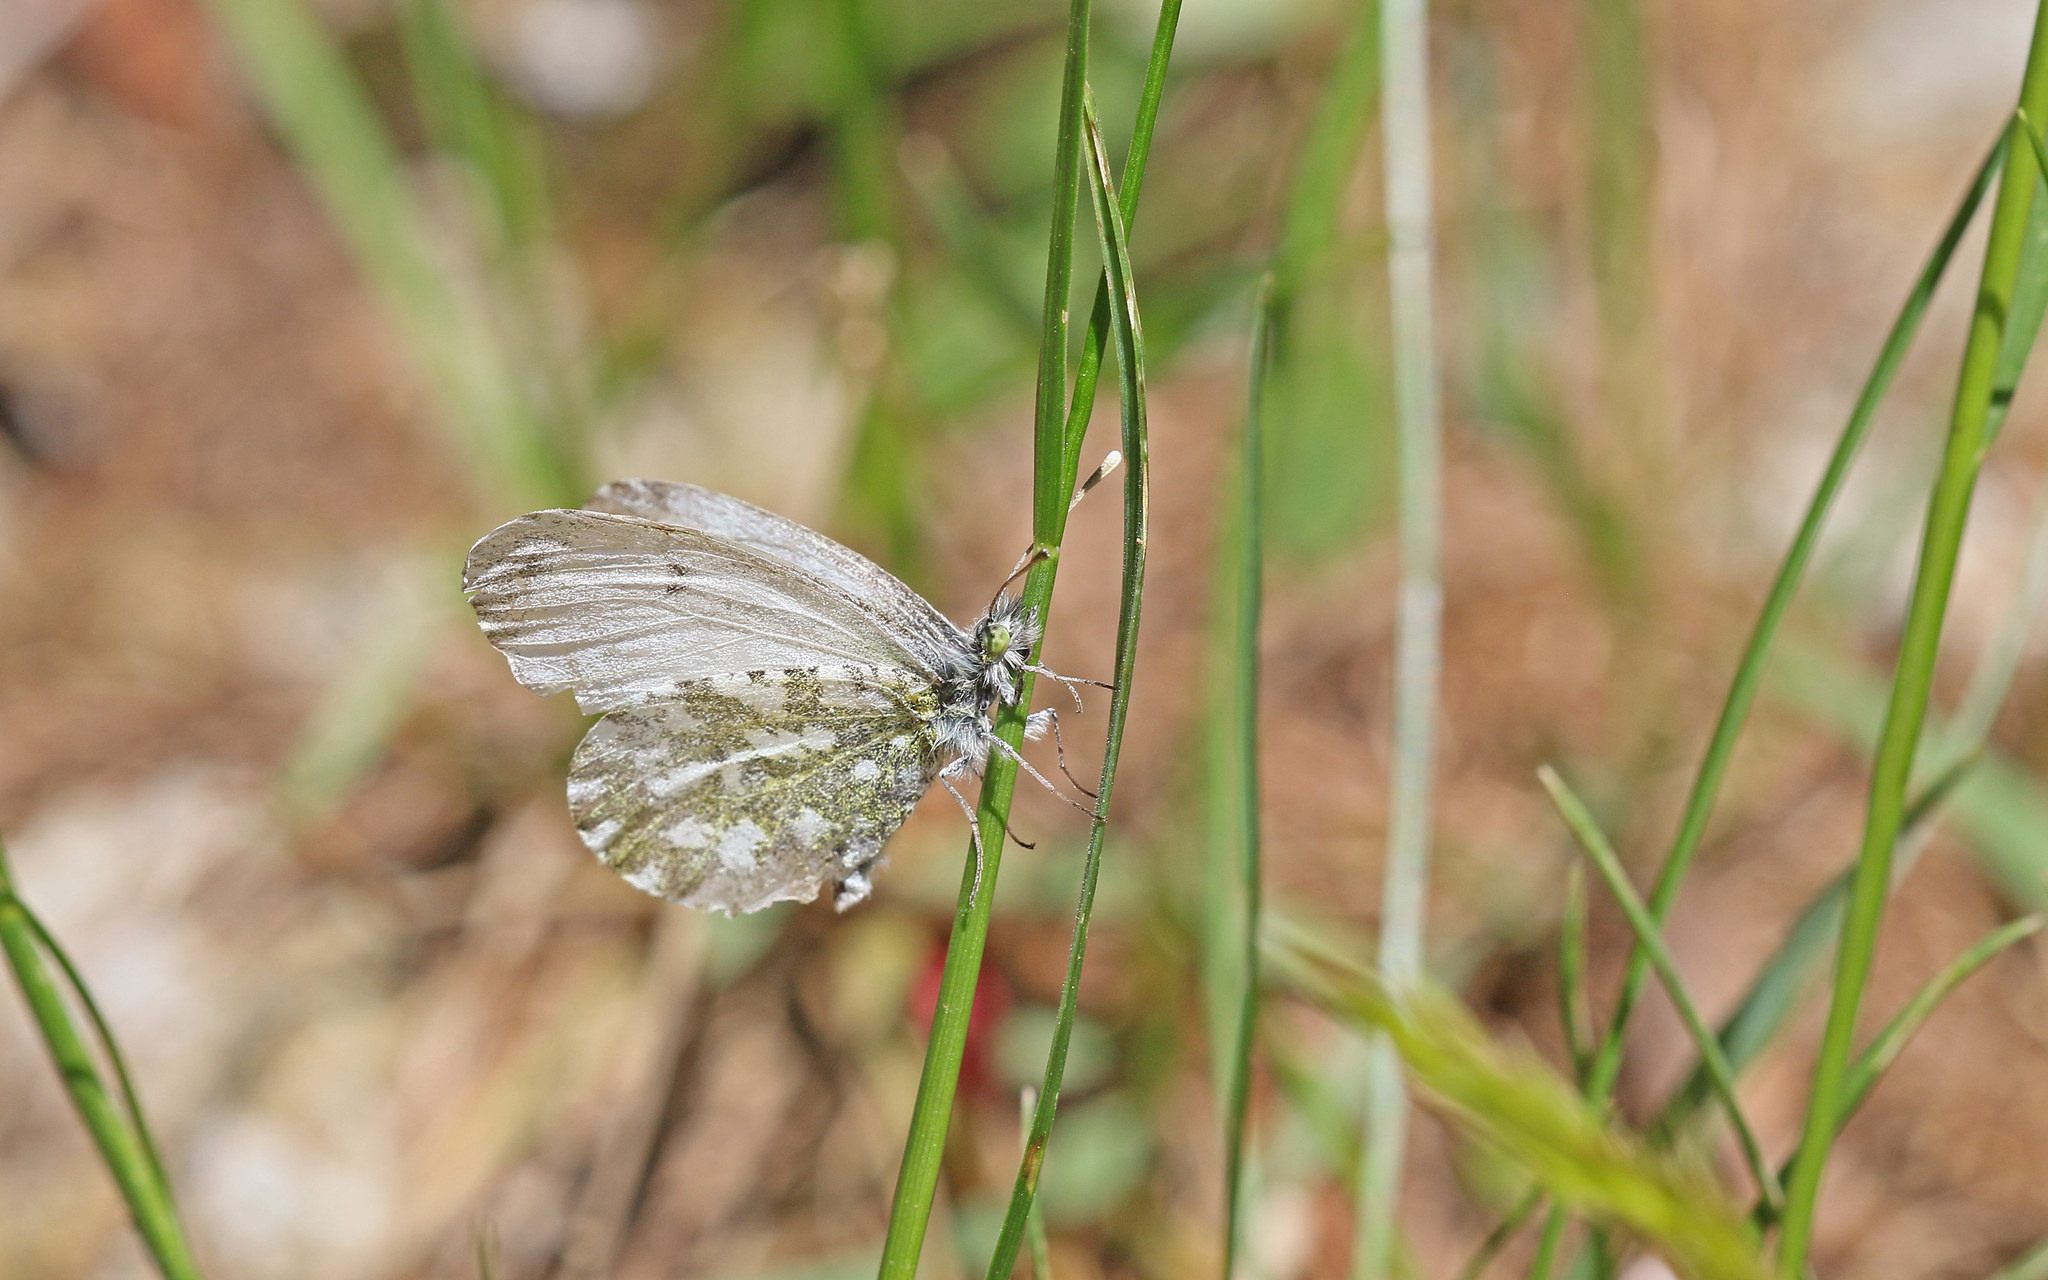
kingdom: Animalia
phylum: Arthropoda
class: Insecta
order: Lepidoptera
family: Pieridae
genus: Anthocharis
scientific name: Anthocharis cardamines
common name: Orange-tip
